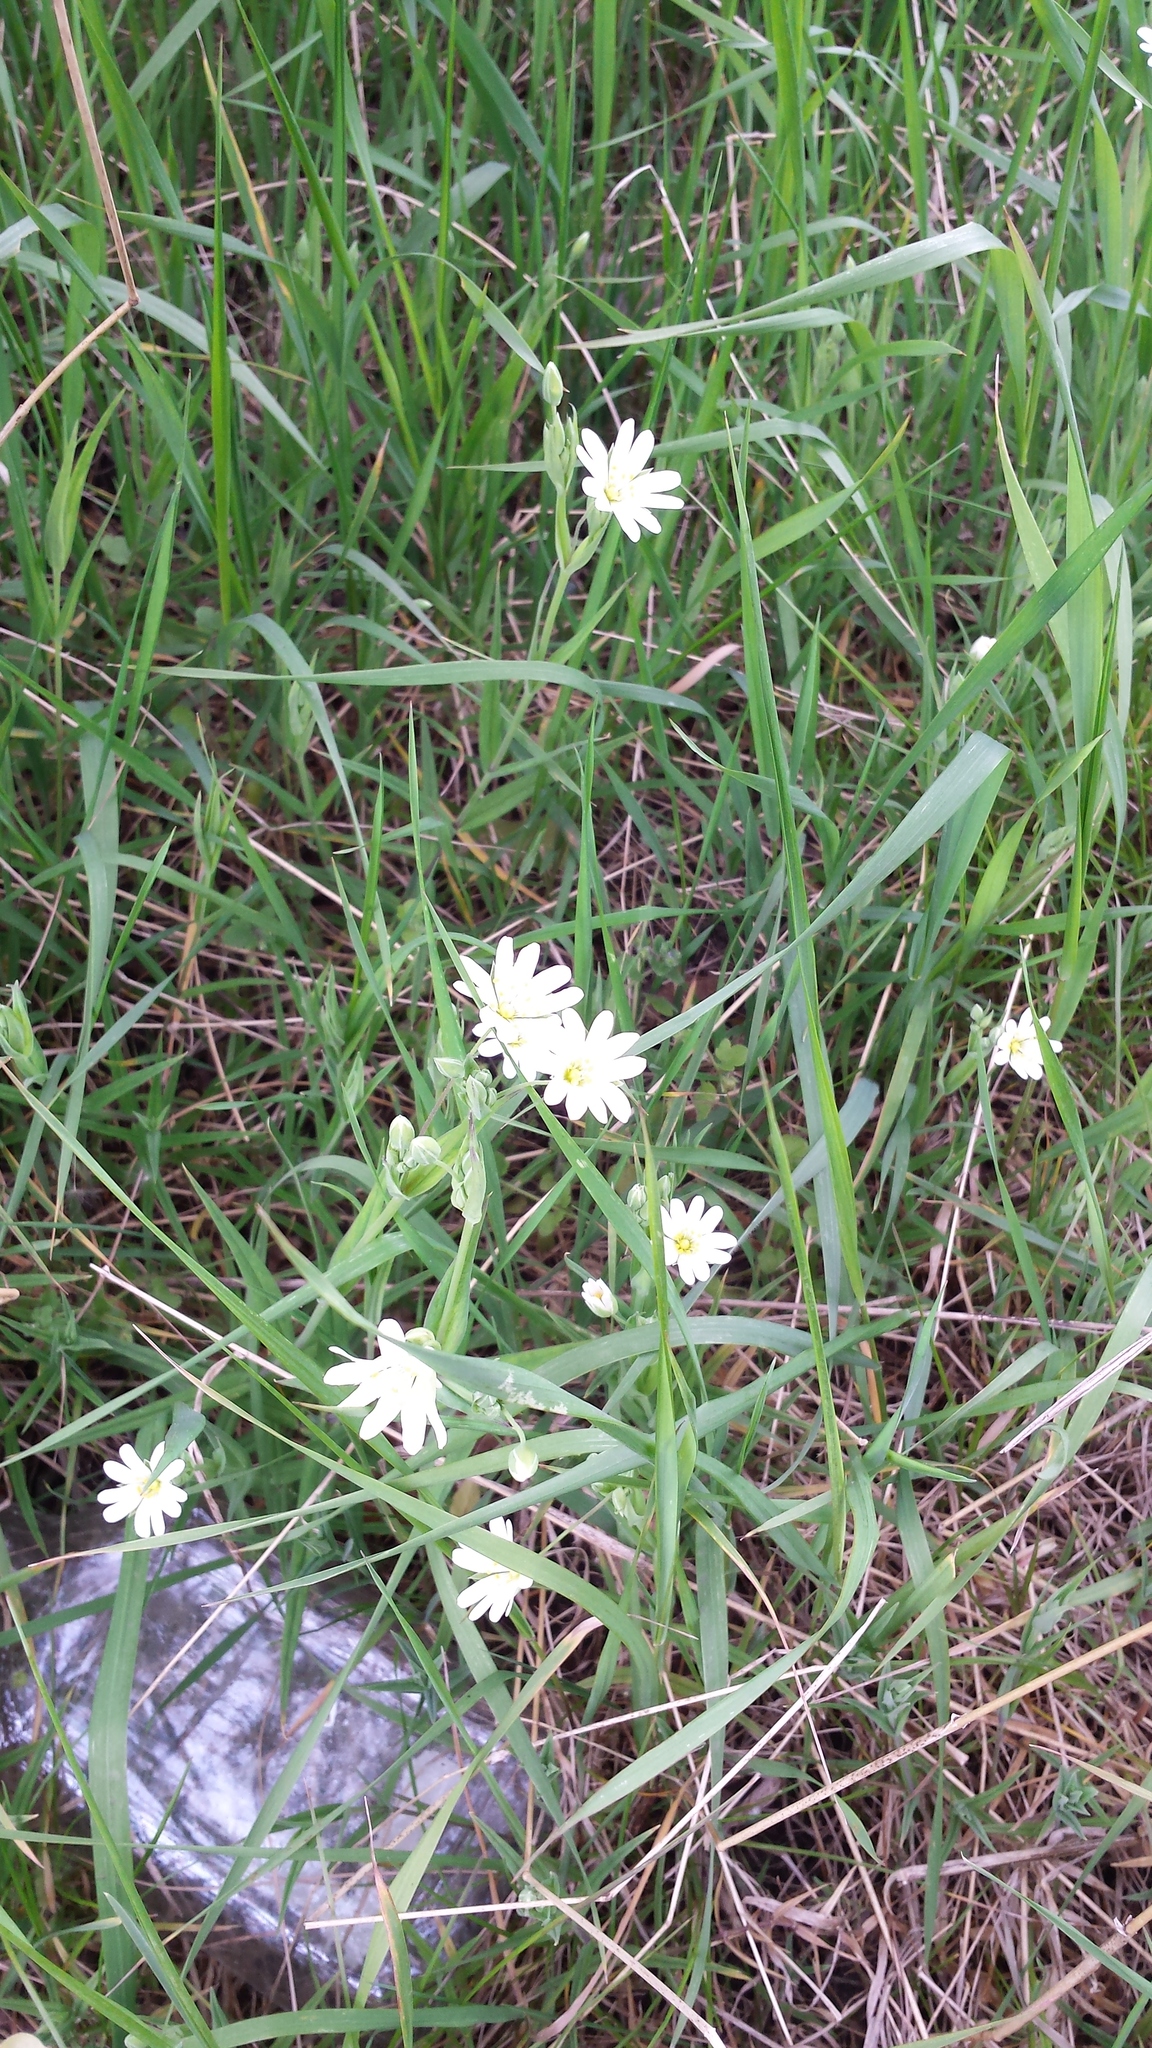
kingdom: Plantae
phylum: Tracheophyta
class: Magnoliopsida
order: Caryophyllales
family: Caryophyllaceae
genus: Rabelera
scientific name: Rabelera holostea
